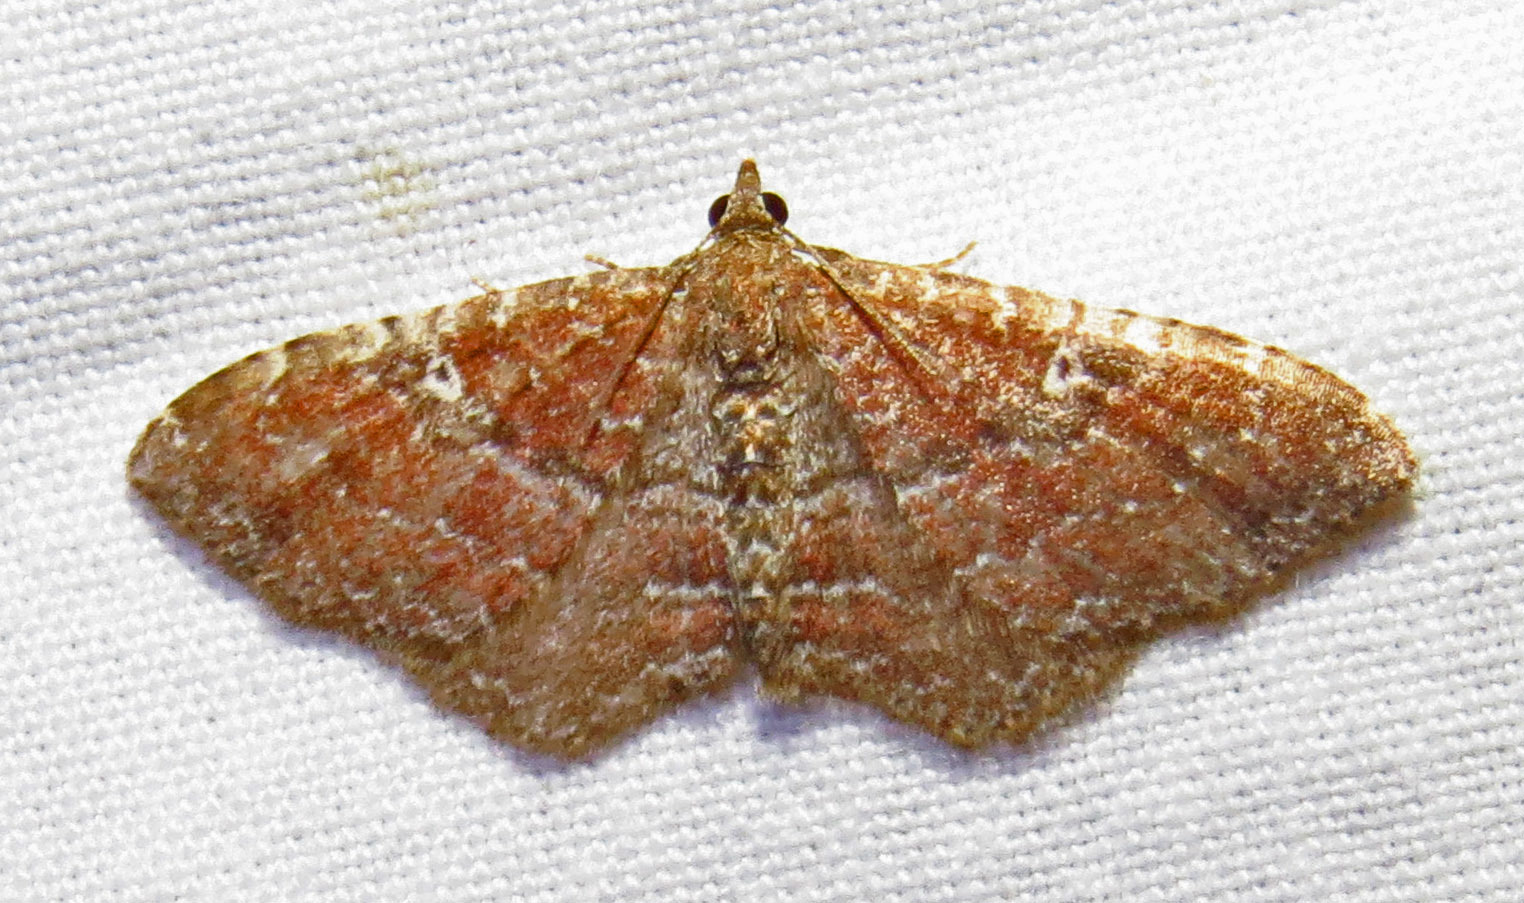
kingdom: Animalia
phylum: Arthropoda
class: Insecta
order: Lepidoptera
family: Geometridae
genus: Orthonama
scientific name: Orthonama obstipata
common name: The gem
